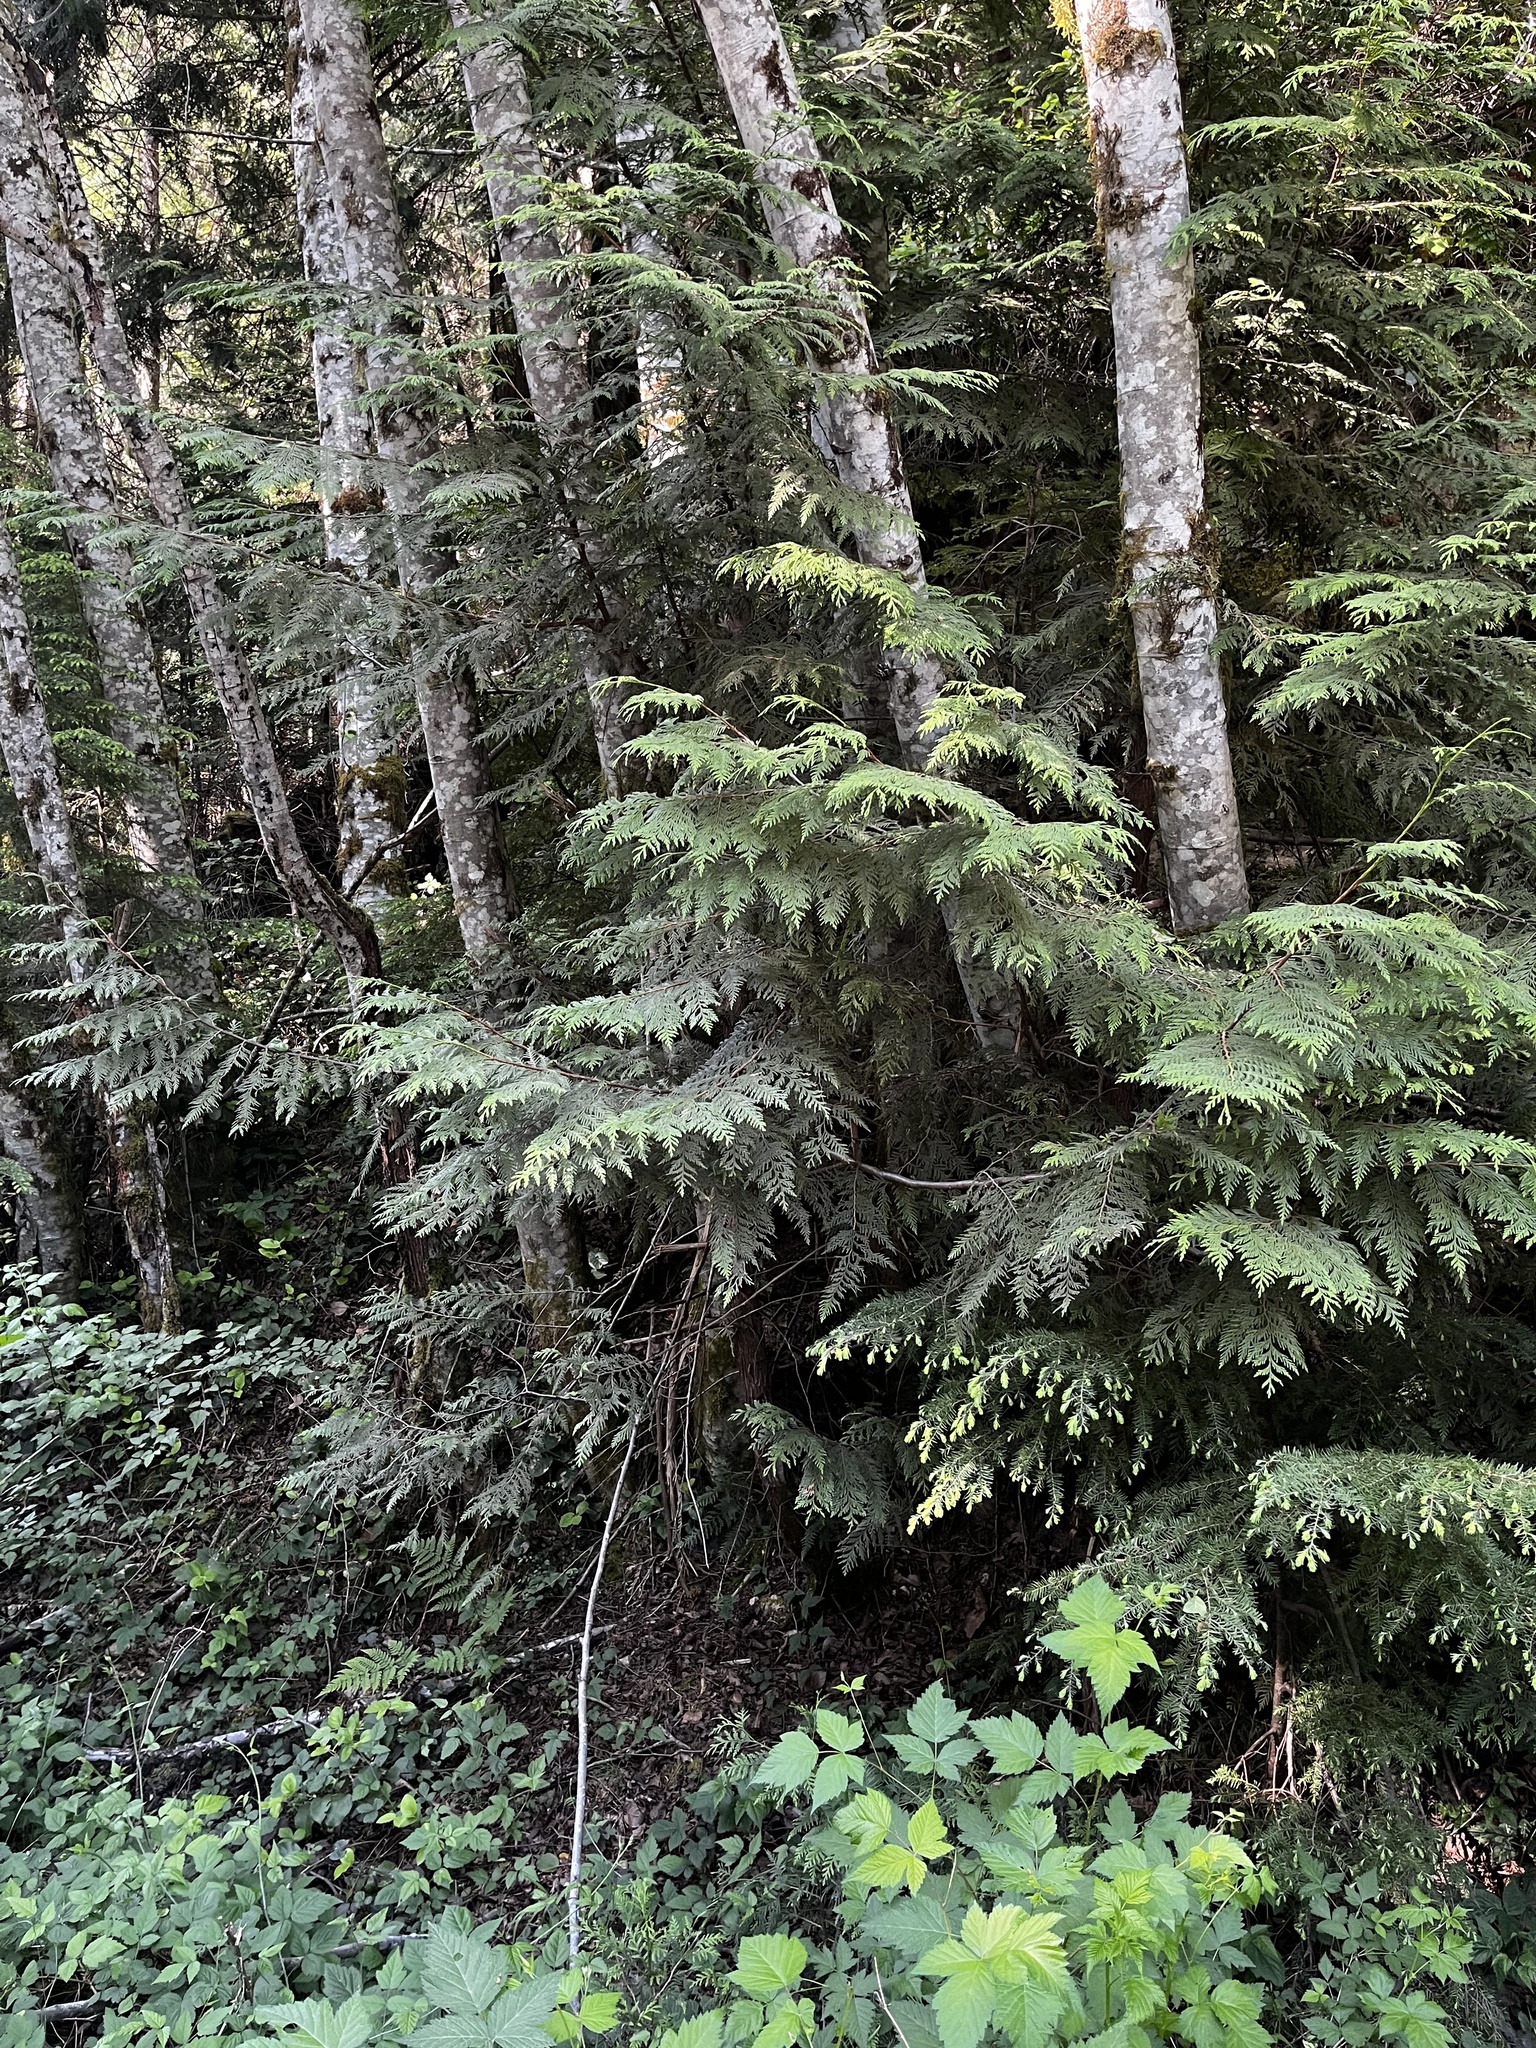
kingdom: Plantae
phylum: Tracheophyta
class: Pinopsida
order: Pinales
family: Cupressaceae
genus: Thuja
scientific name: Thuja plicata
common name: Western red-cedar
